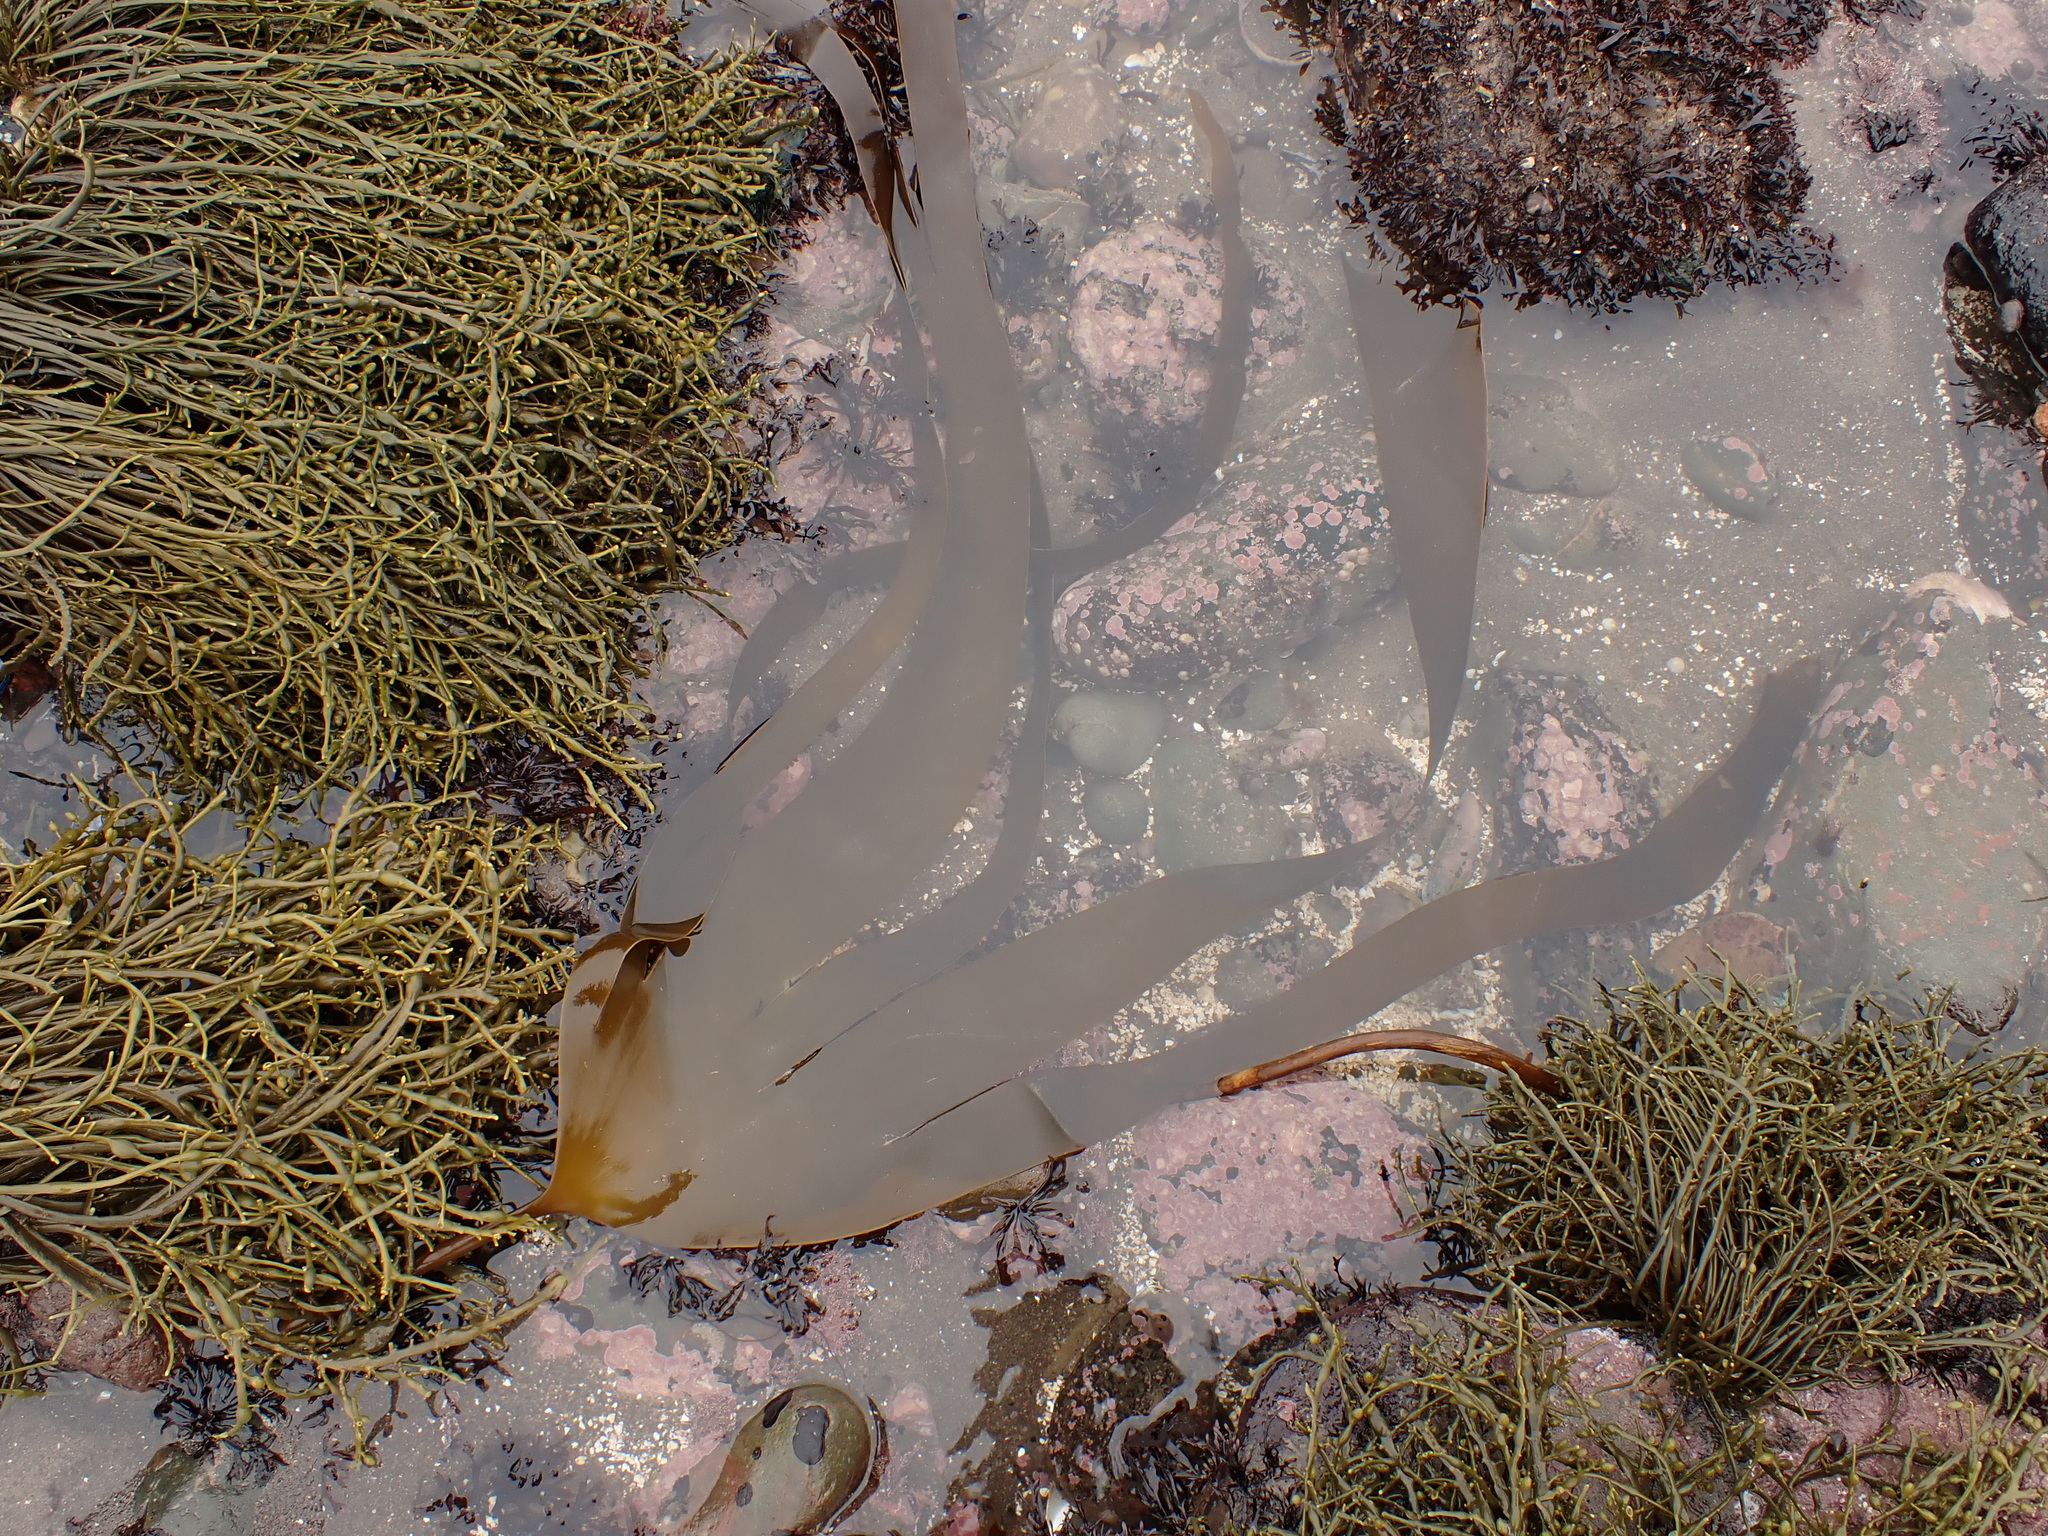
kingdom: Chromista
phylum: Ochrophyta
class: Phaeophyceae
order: Laminariales
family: Laminariaceae
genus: Laminaria
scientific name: Laminaria digitata
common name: Oarweed
